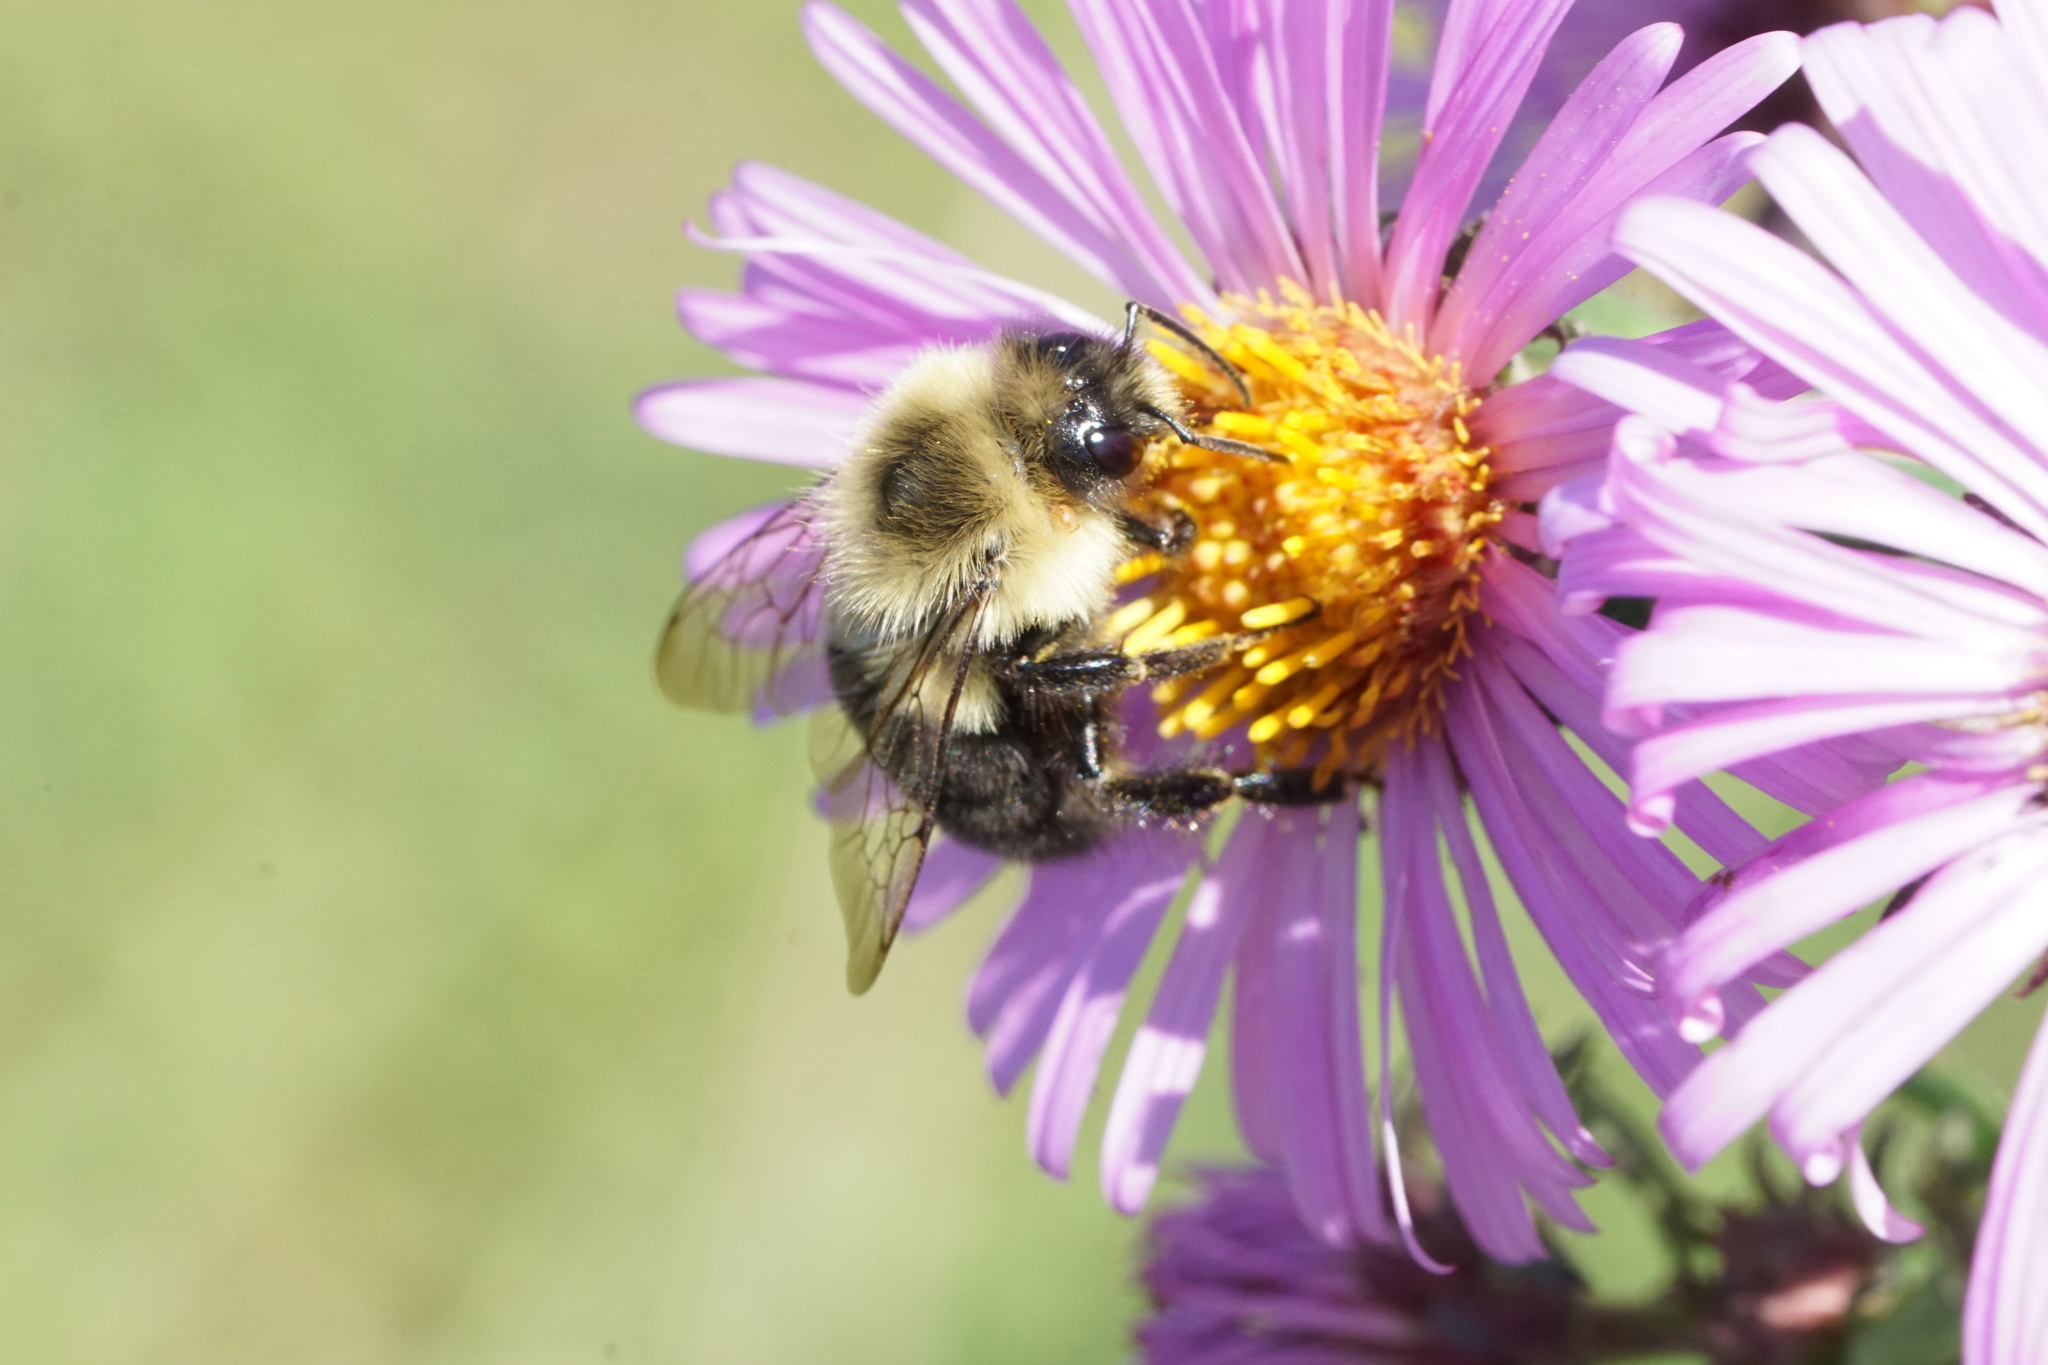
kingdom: Animalia
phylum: Arthropoda
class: Insecta
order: Hymenoptera
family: Apidae
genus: Bombus
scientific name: Bombus impatiens
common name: Common eastern bumble bee
